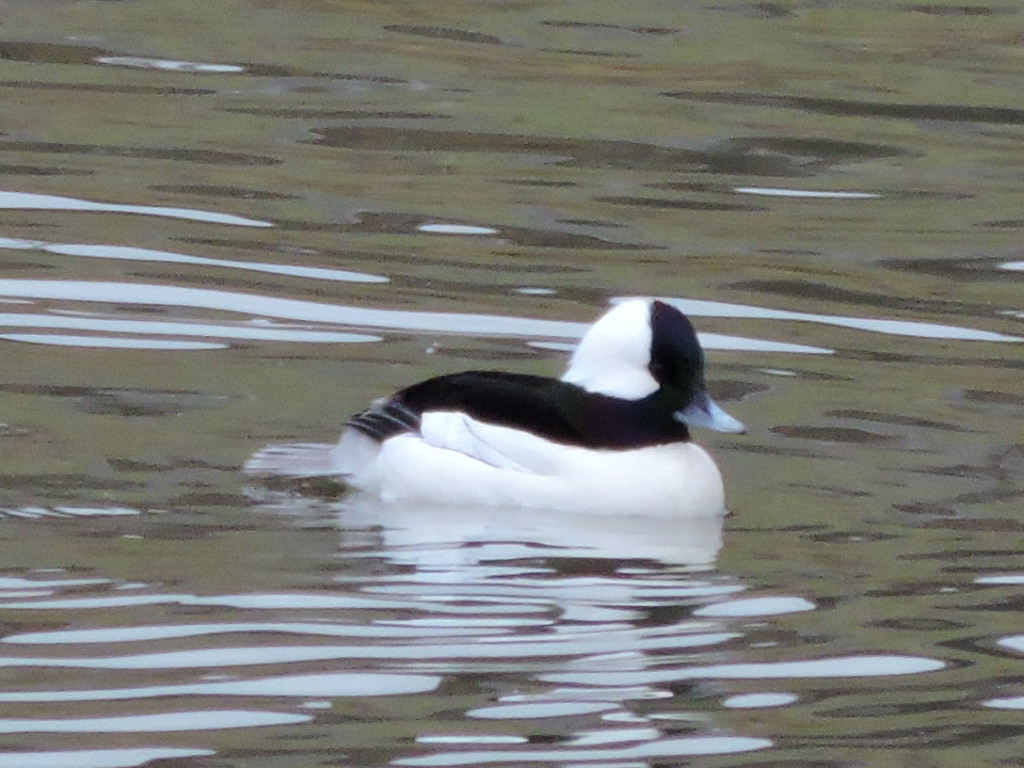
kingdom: Animalia
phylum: Chordata
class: Aves
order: Anseriformes
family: Anatidae
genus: Bucephala
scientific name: Bucephala albeola
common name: Bufflehead
